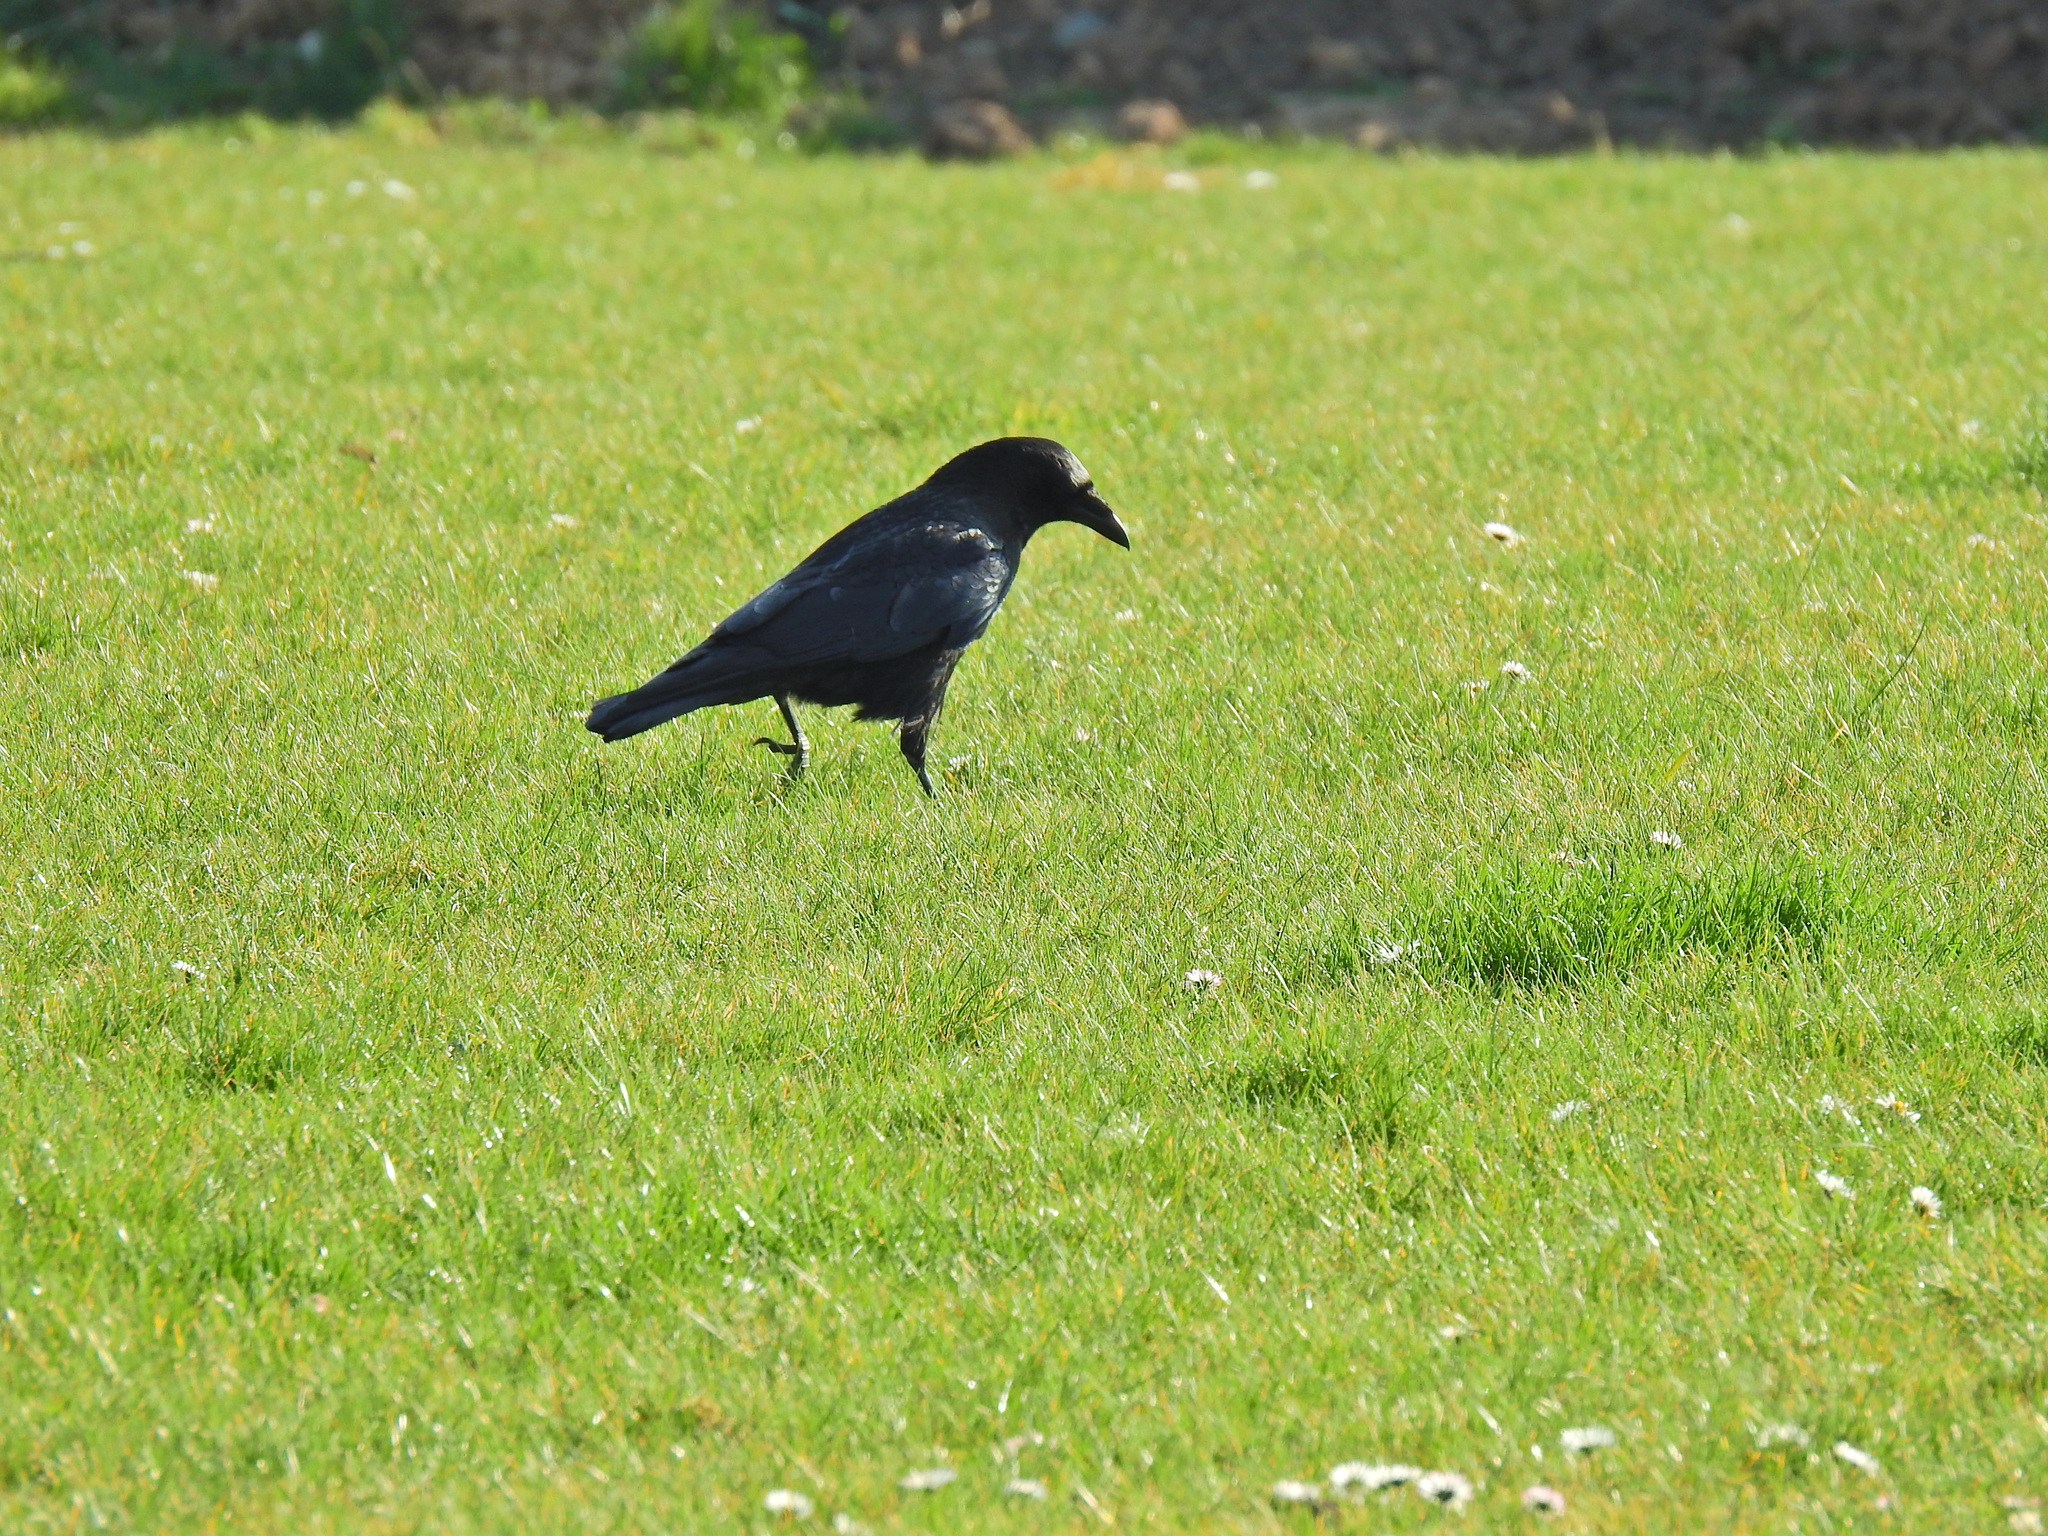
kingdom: Animalia
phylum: Chordata
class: Aves
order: Passeriformes
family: Corvidae
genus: Corvus
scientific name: Corvus corone
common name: Carrion crow
